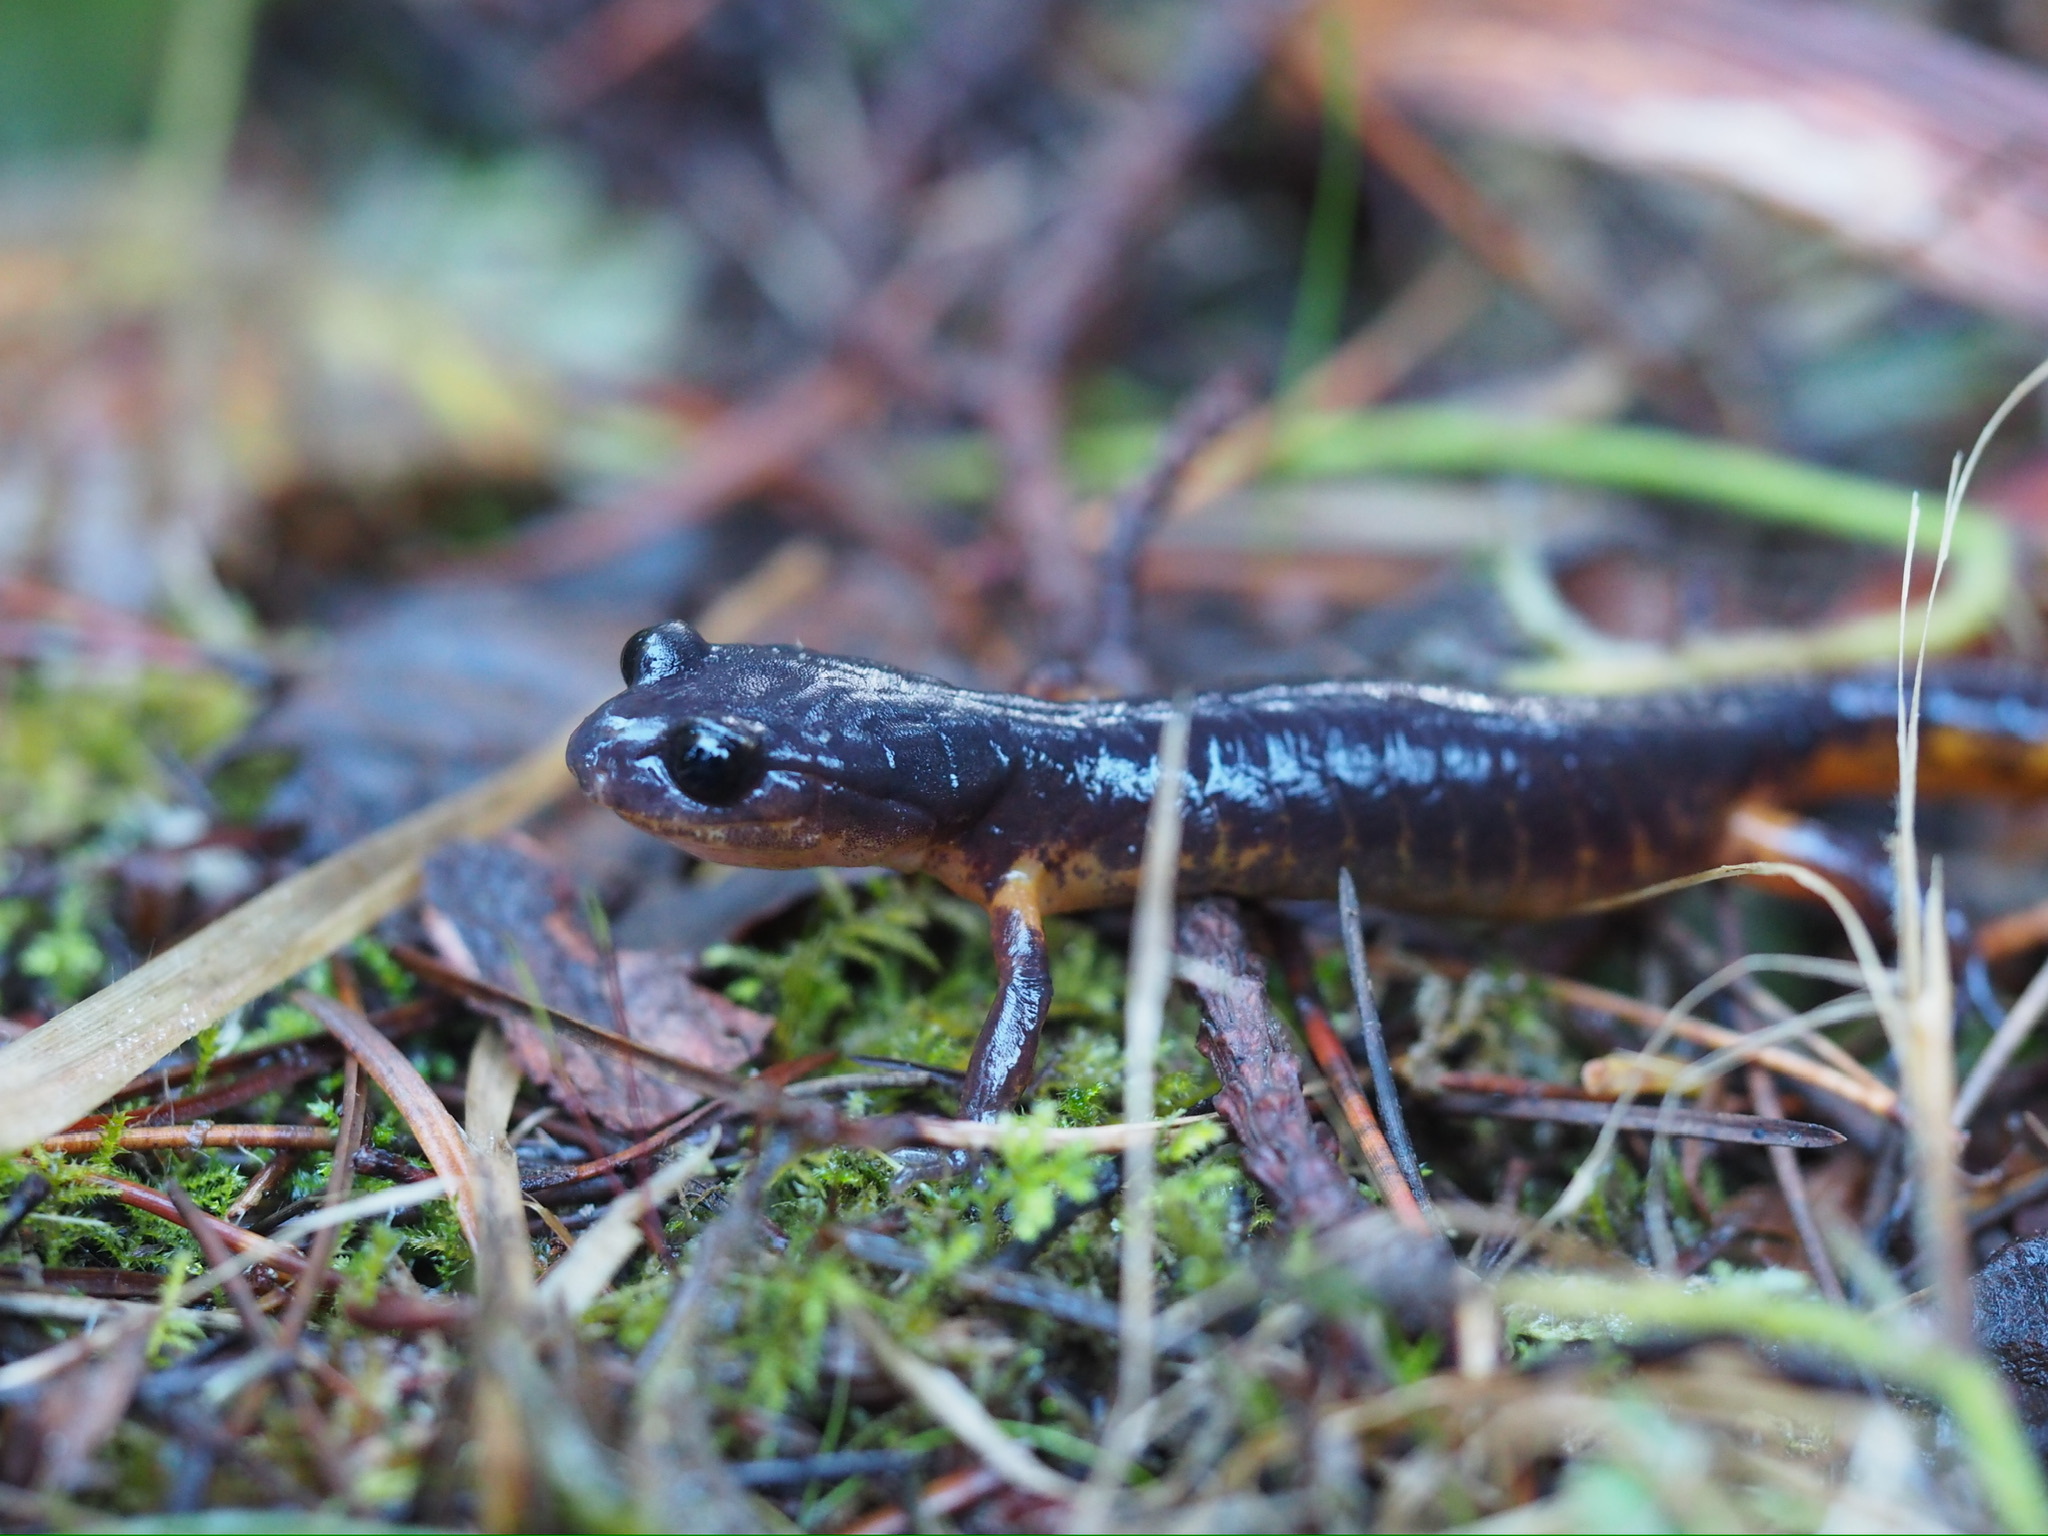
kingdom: Animalia
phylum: Chordata
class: Amphibia
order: Caudata
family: Plethodontidae
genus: Ensatina
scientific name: Ensatina eschscholtzii
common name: Ensatina
